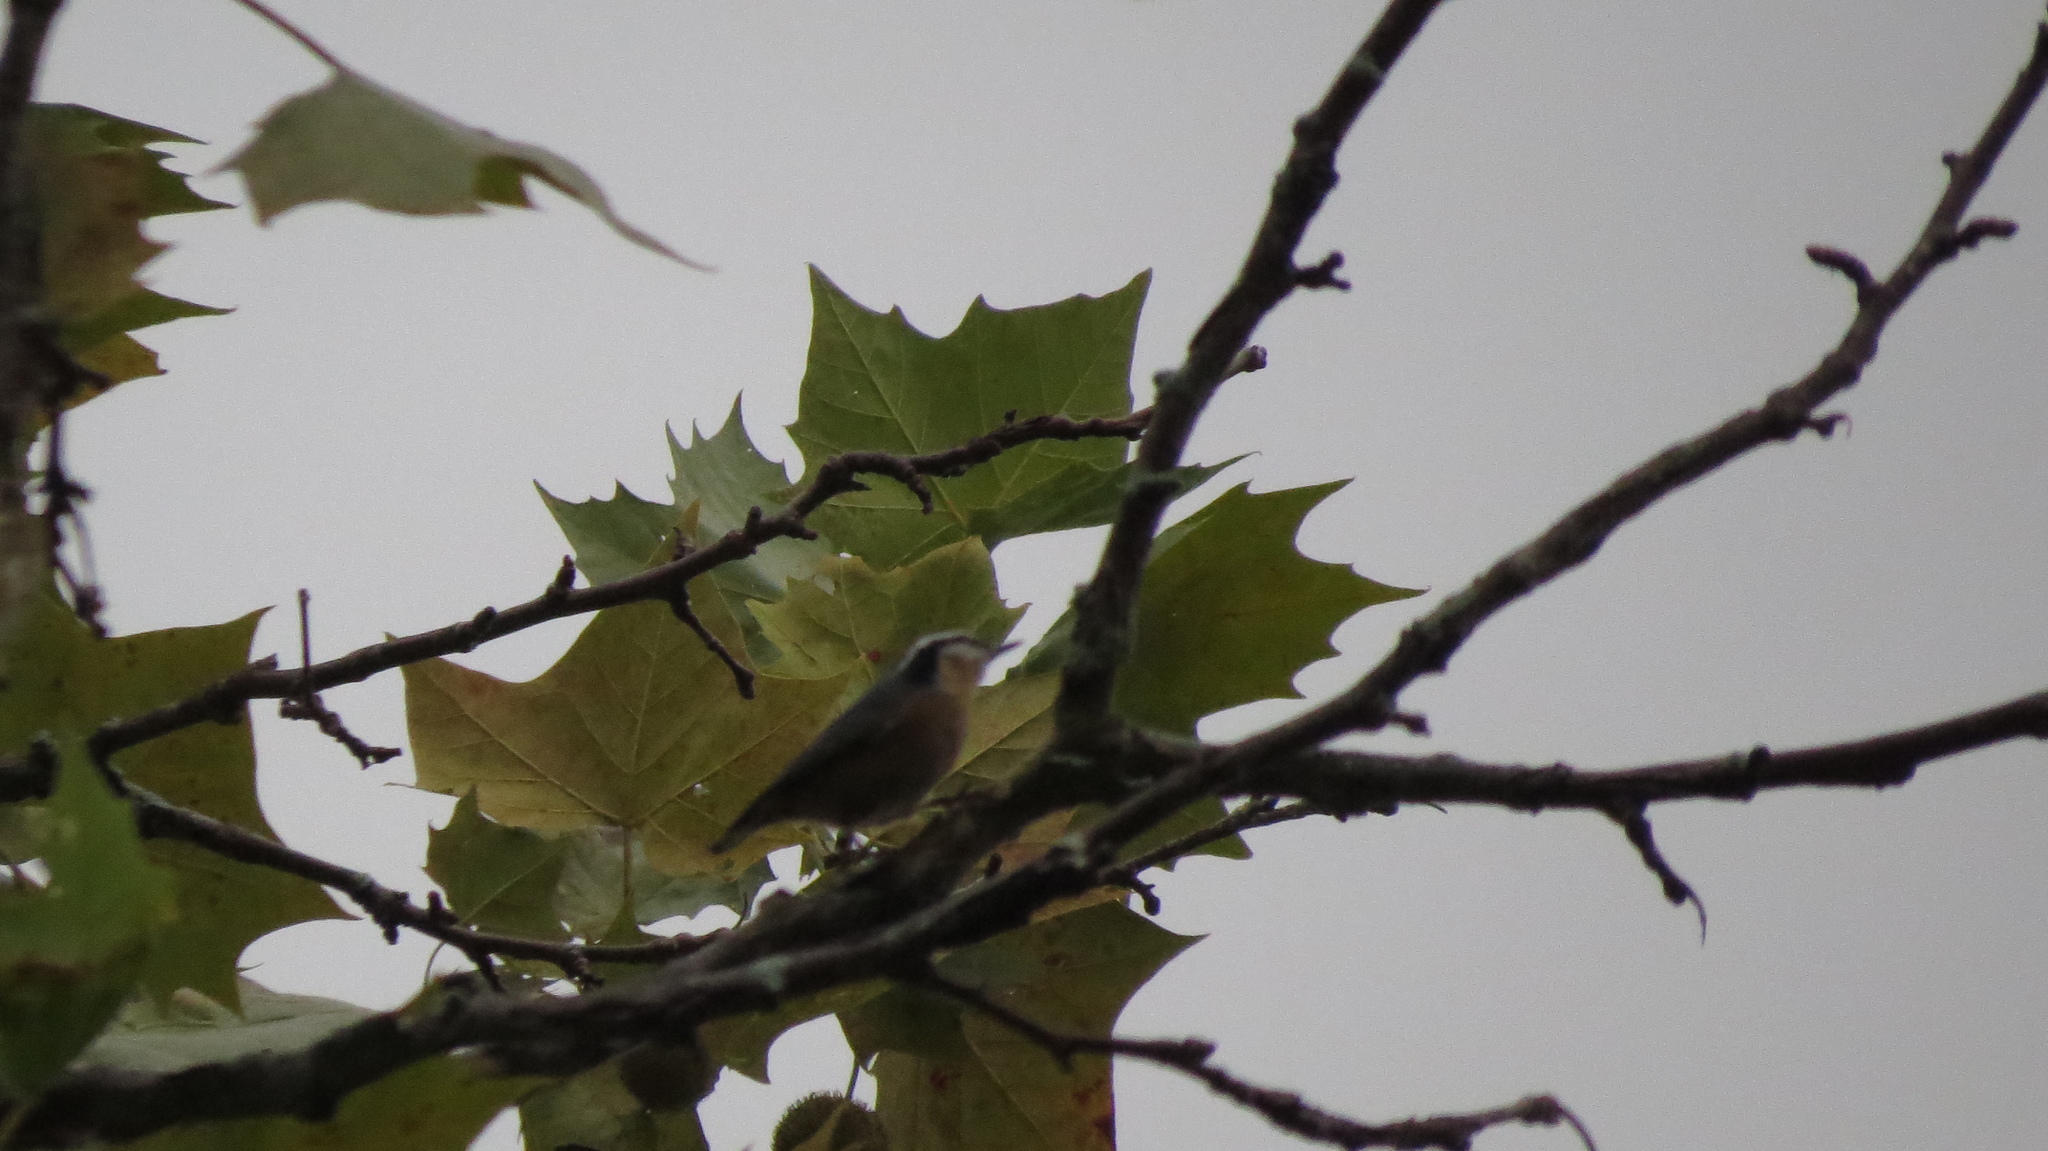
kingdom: Animalia
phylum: Chordata
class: Aves
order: Passeriformes
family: Sittidae
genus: Sitta
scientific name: Sitta canadensis
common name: Red-breasted nuthatch
